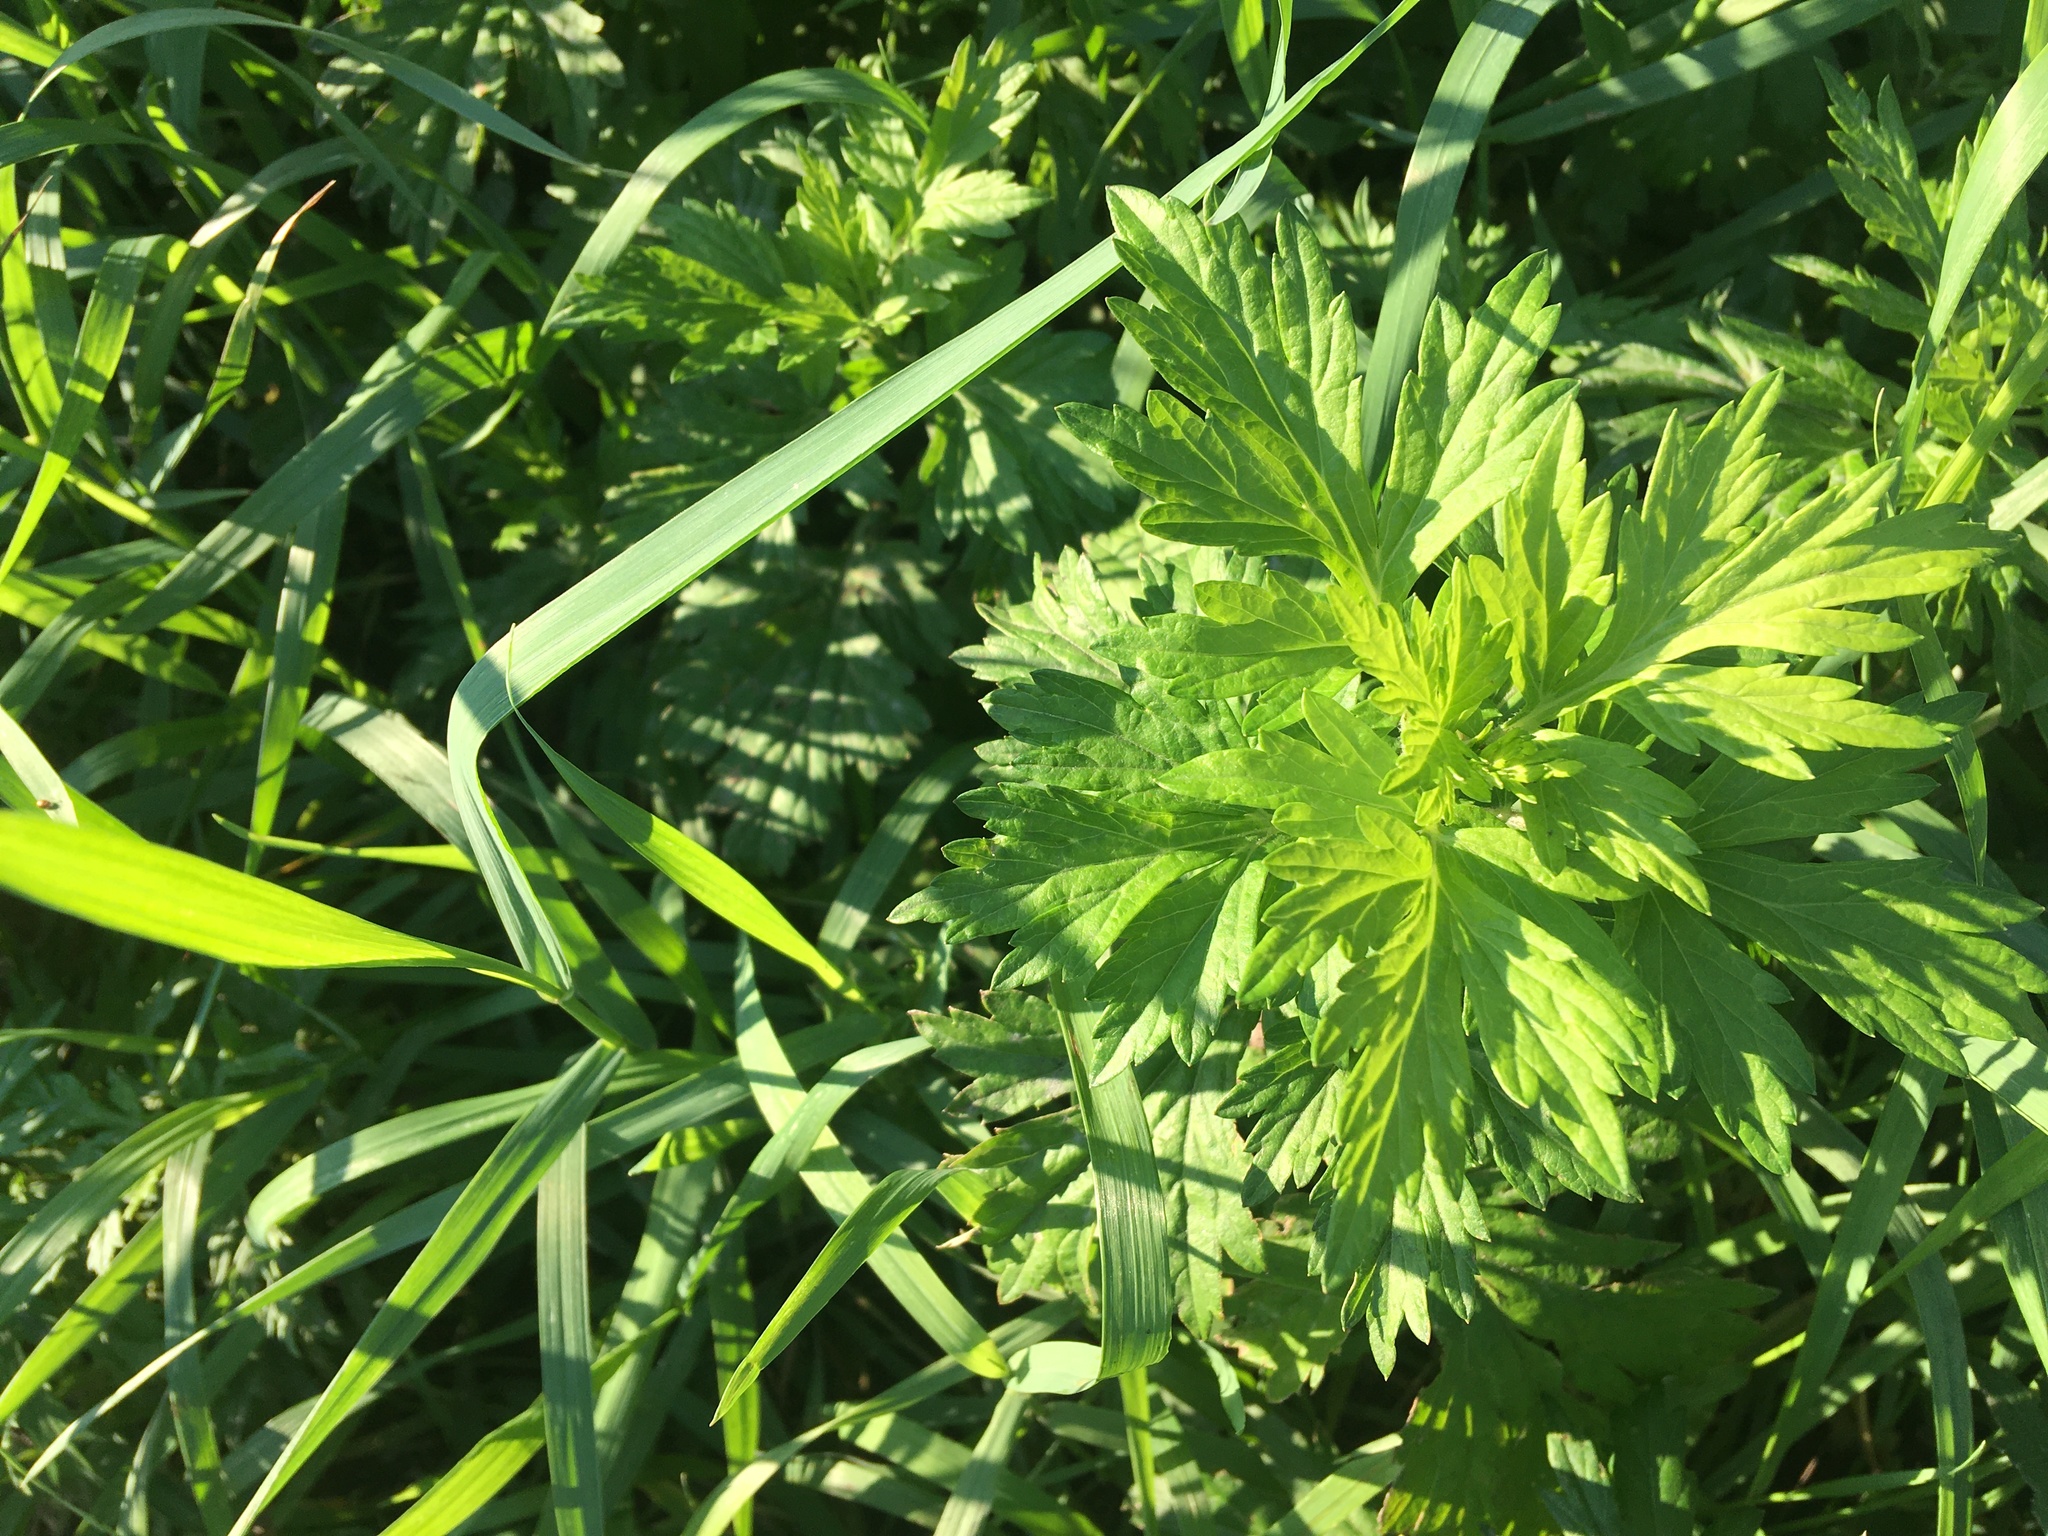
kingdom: Plantae
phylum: Tracheophyta
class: Magnoliopsida
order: Asterales
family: Asteraceae
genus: Artemisia
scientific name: Artemisia vulgaris
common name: Mugwort
